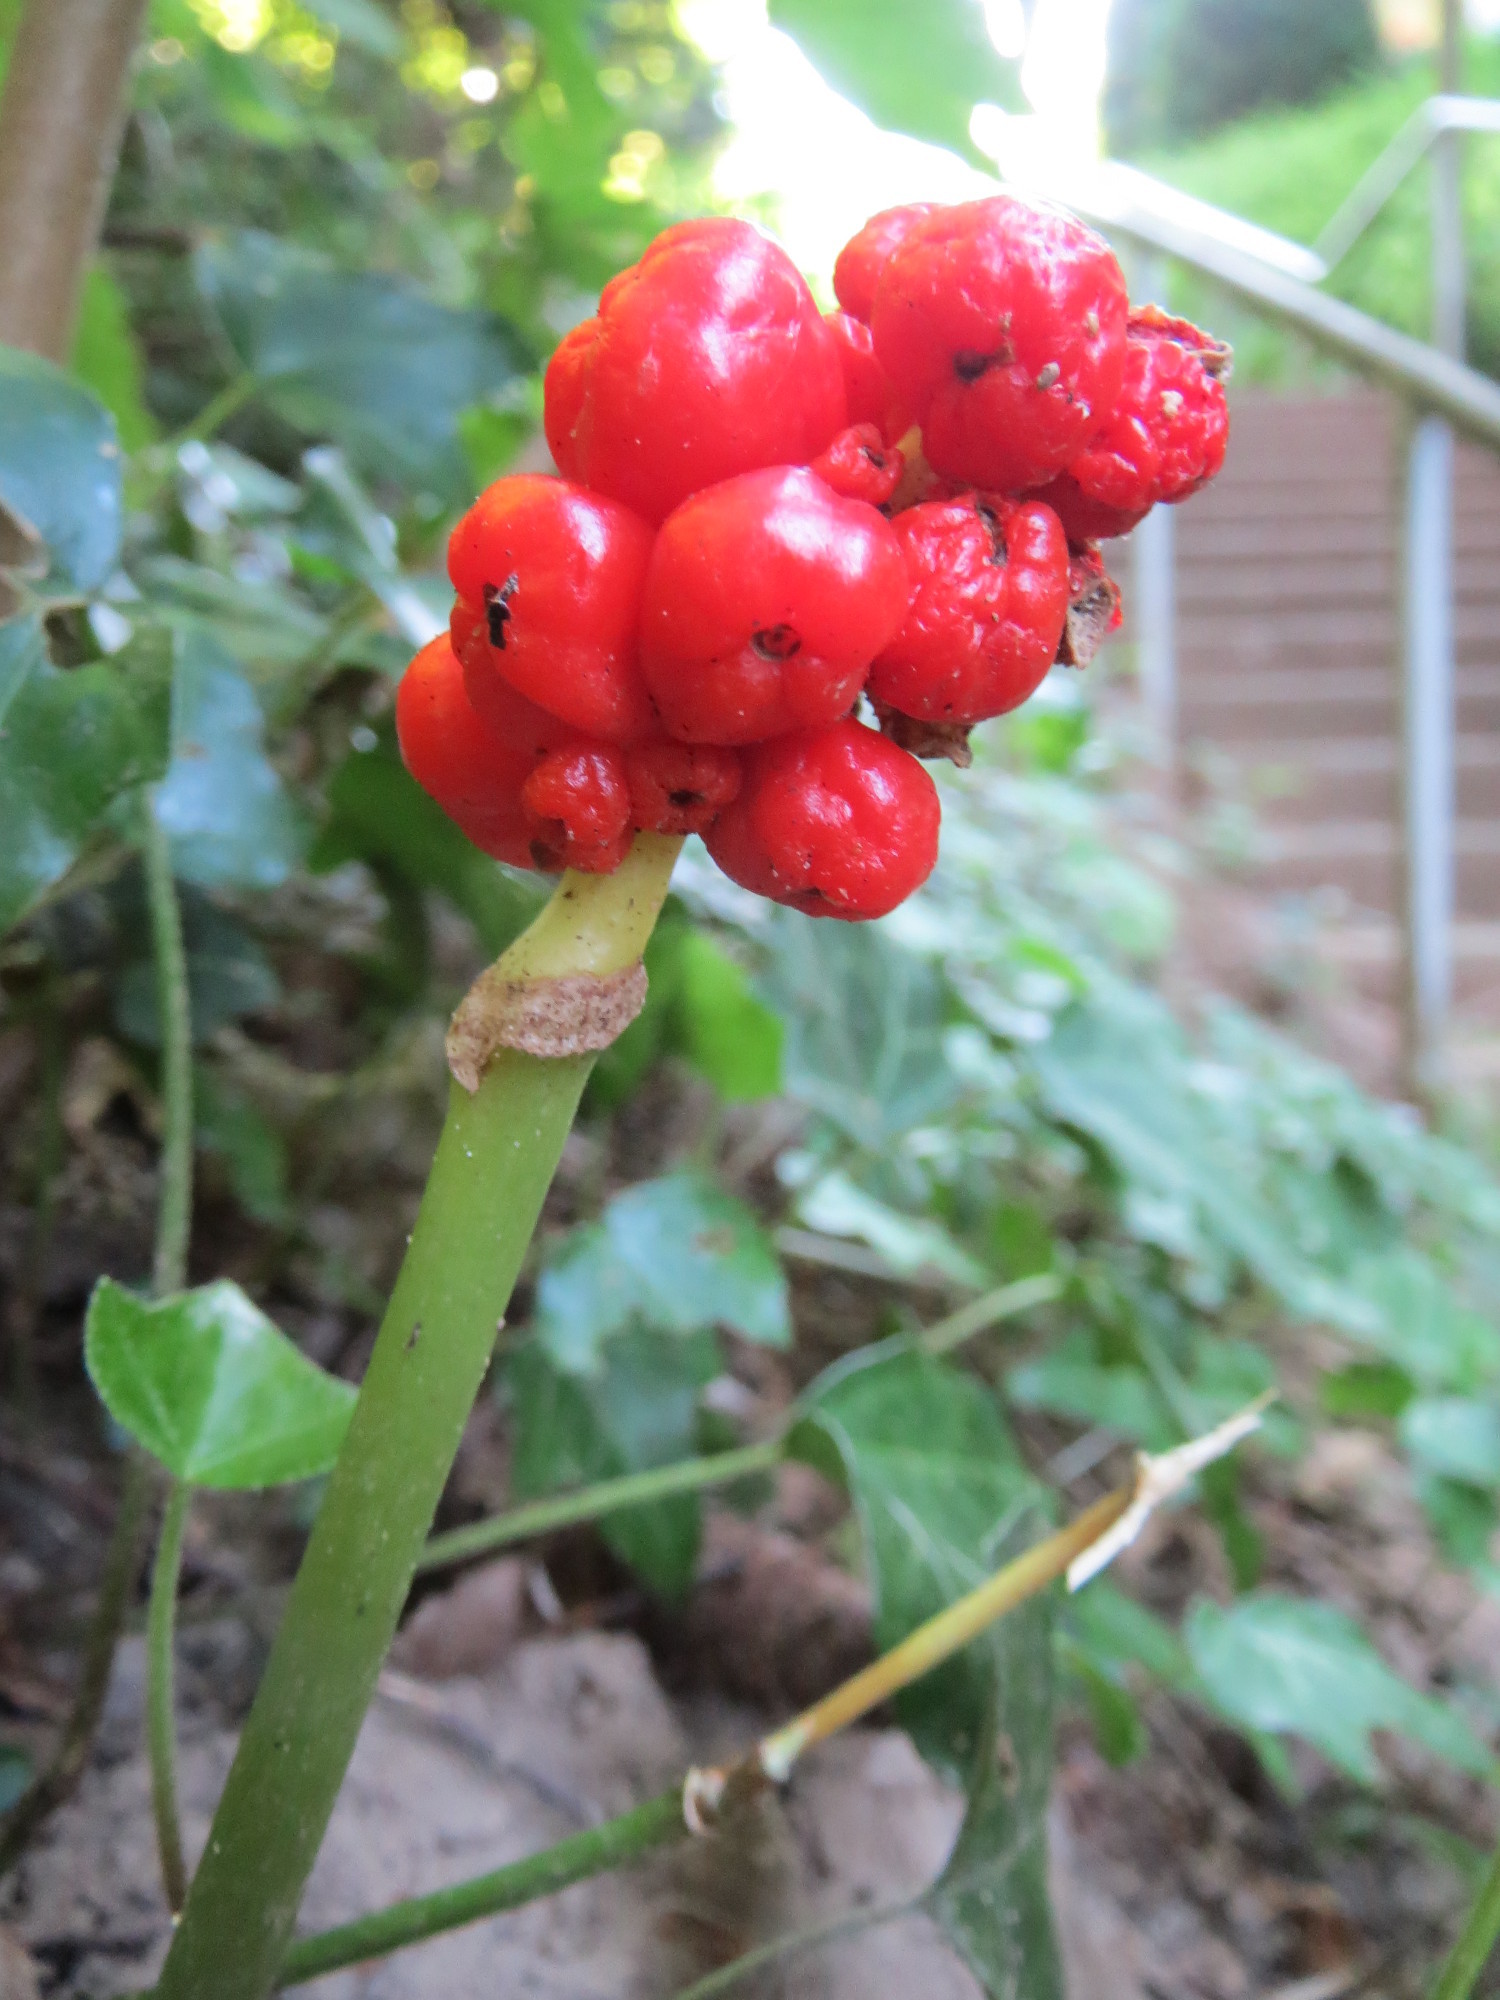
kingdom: Plantae
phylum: Tracheophyta
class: Liliopsida
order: Alismatales
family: Araceae
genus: Arum
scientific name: Arum maculatum
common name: Lords-and-ladies
